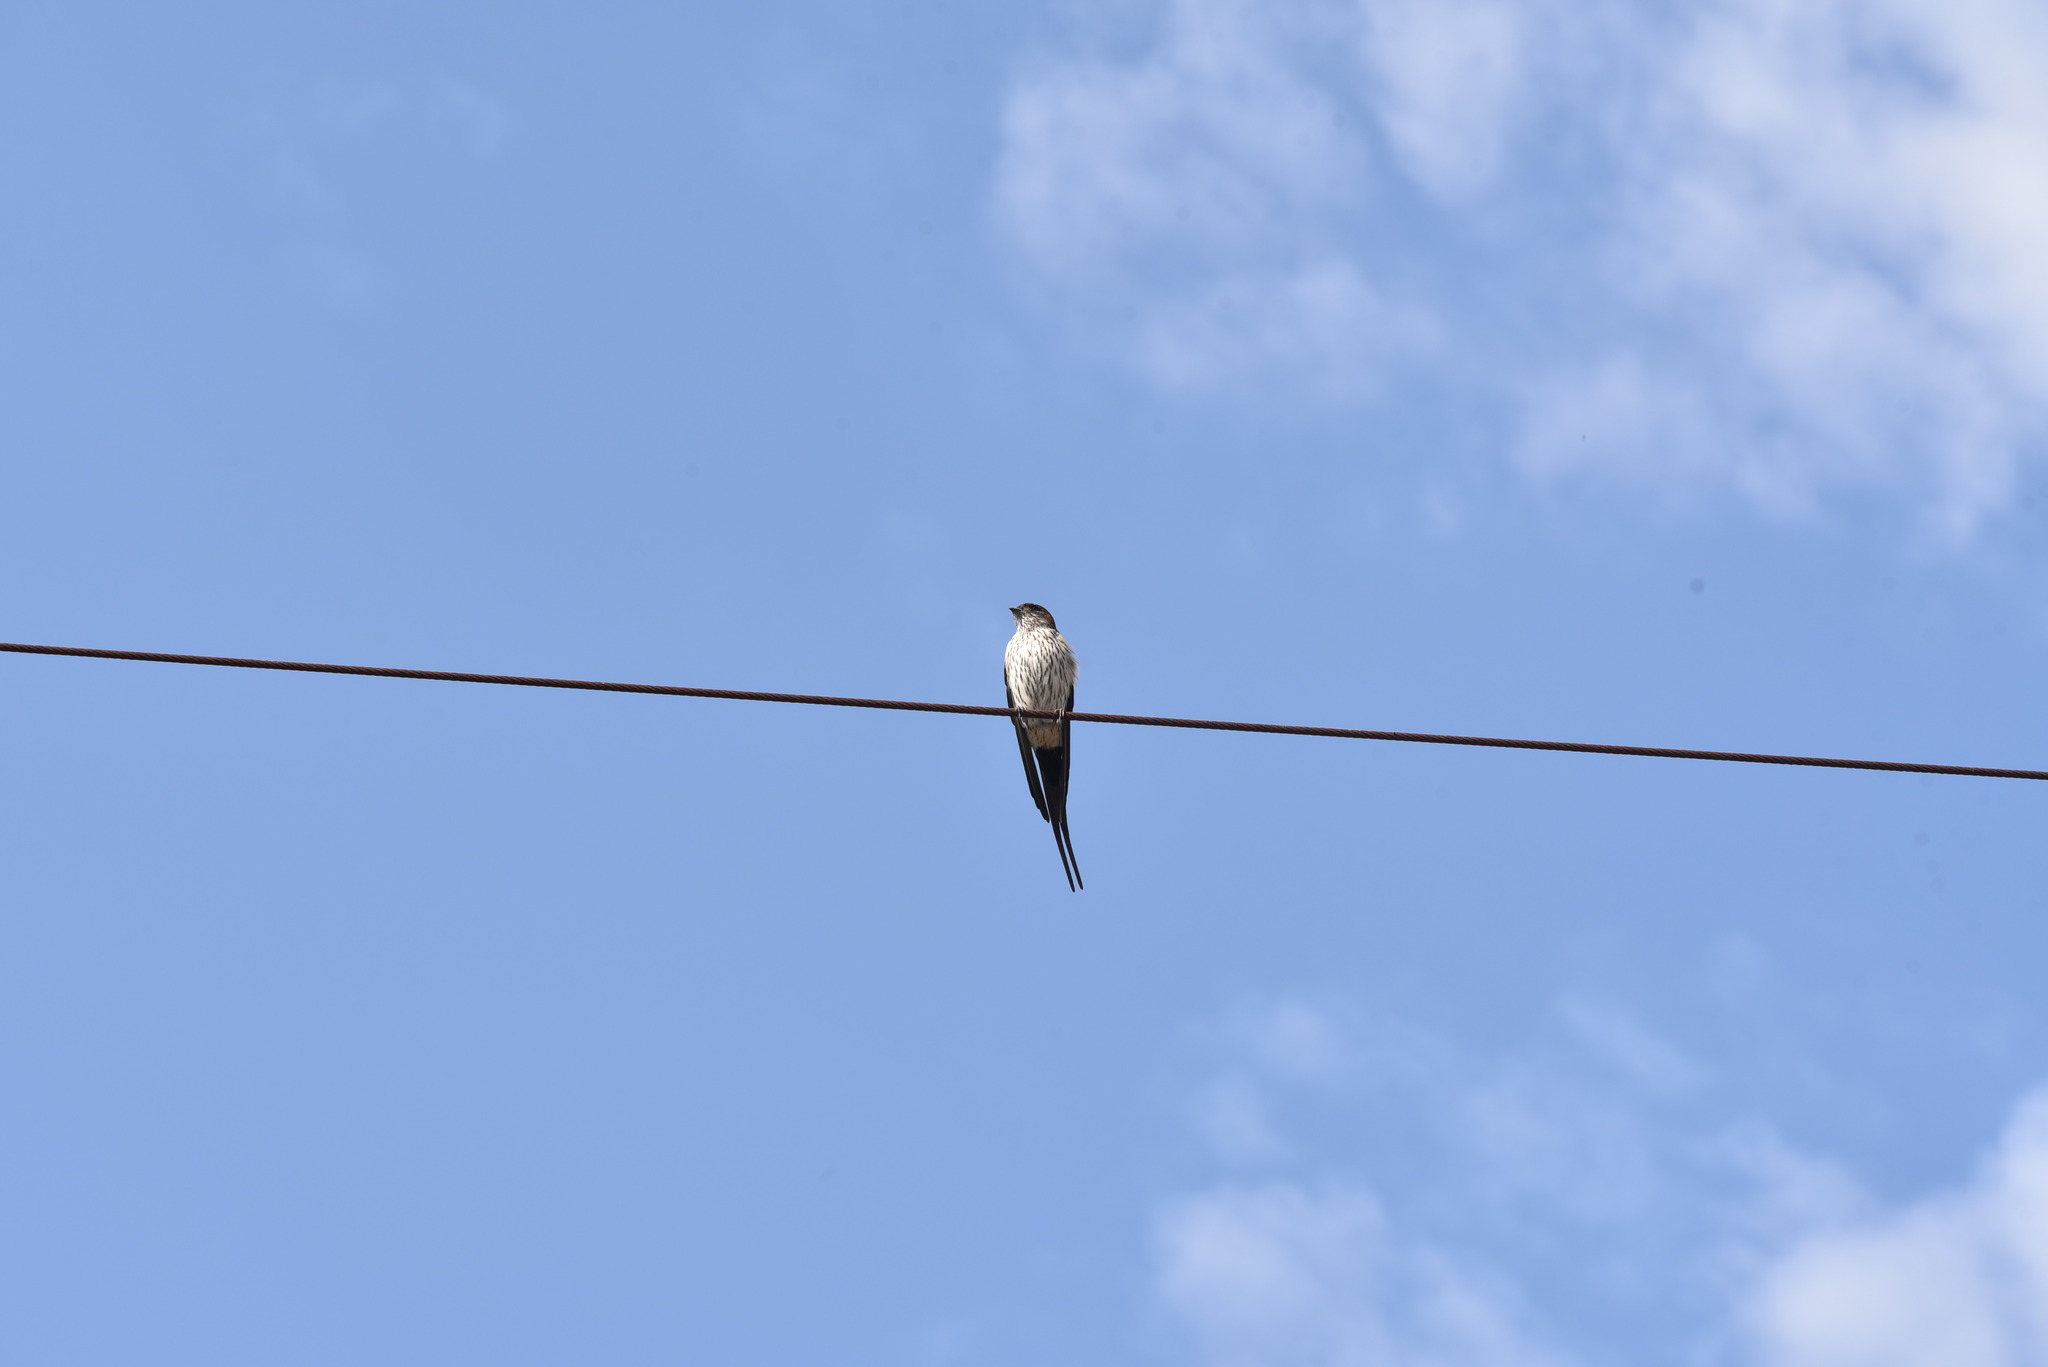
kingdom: Animalia
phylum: Chordata
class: Aves
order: Passeriformes
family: Hirundinidae
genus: Cecropis
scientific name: Cecropis striolata
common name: Striated swallow
